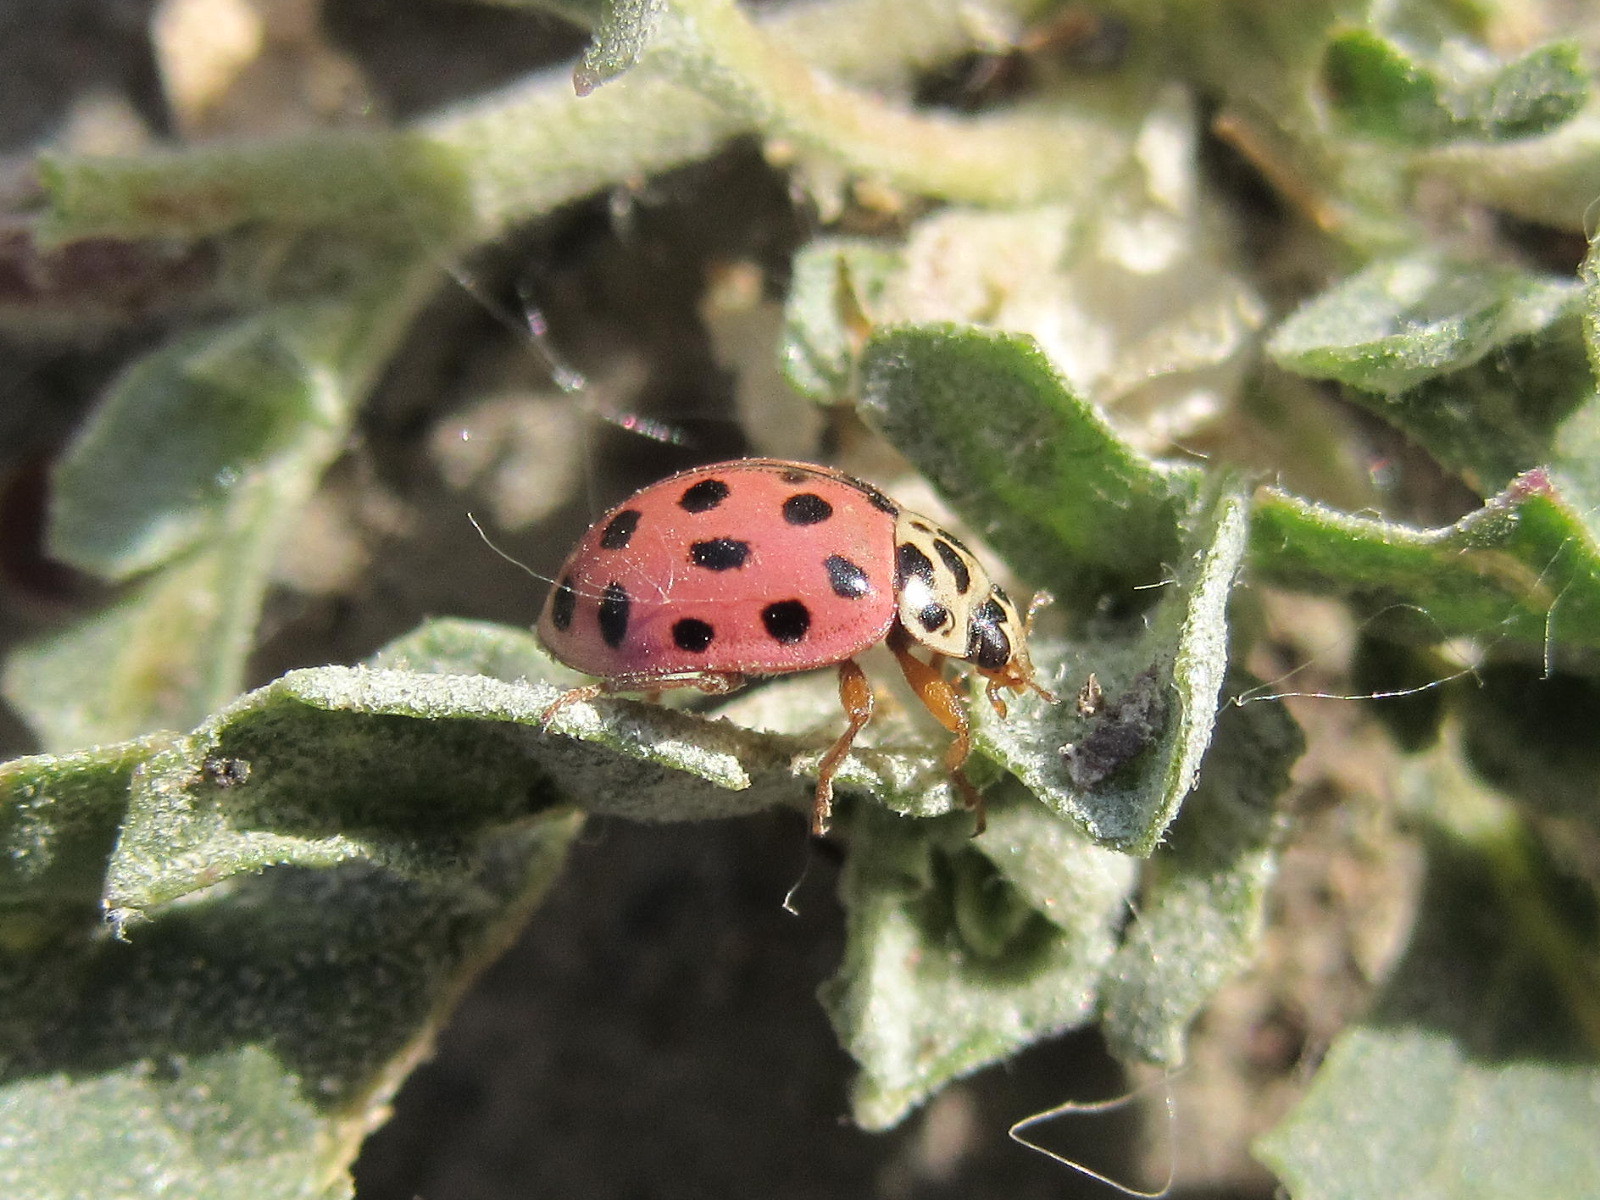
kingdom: Animalia
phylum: Arthropoda
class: Insecta
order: Coleoptera
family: Coccinellidae
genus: Bulaea
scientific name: Bulaea lichatschovi
